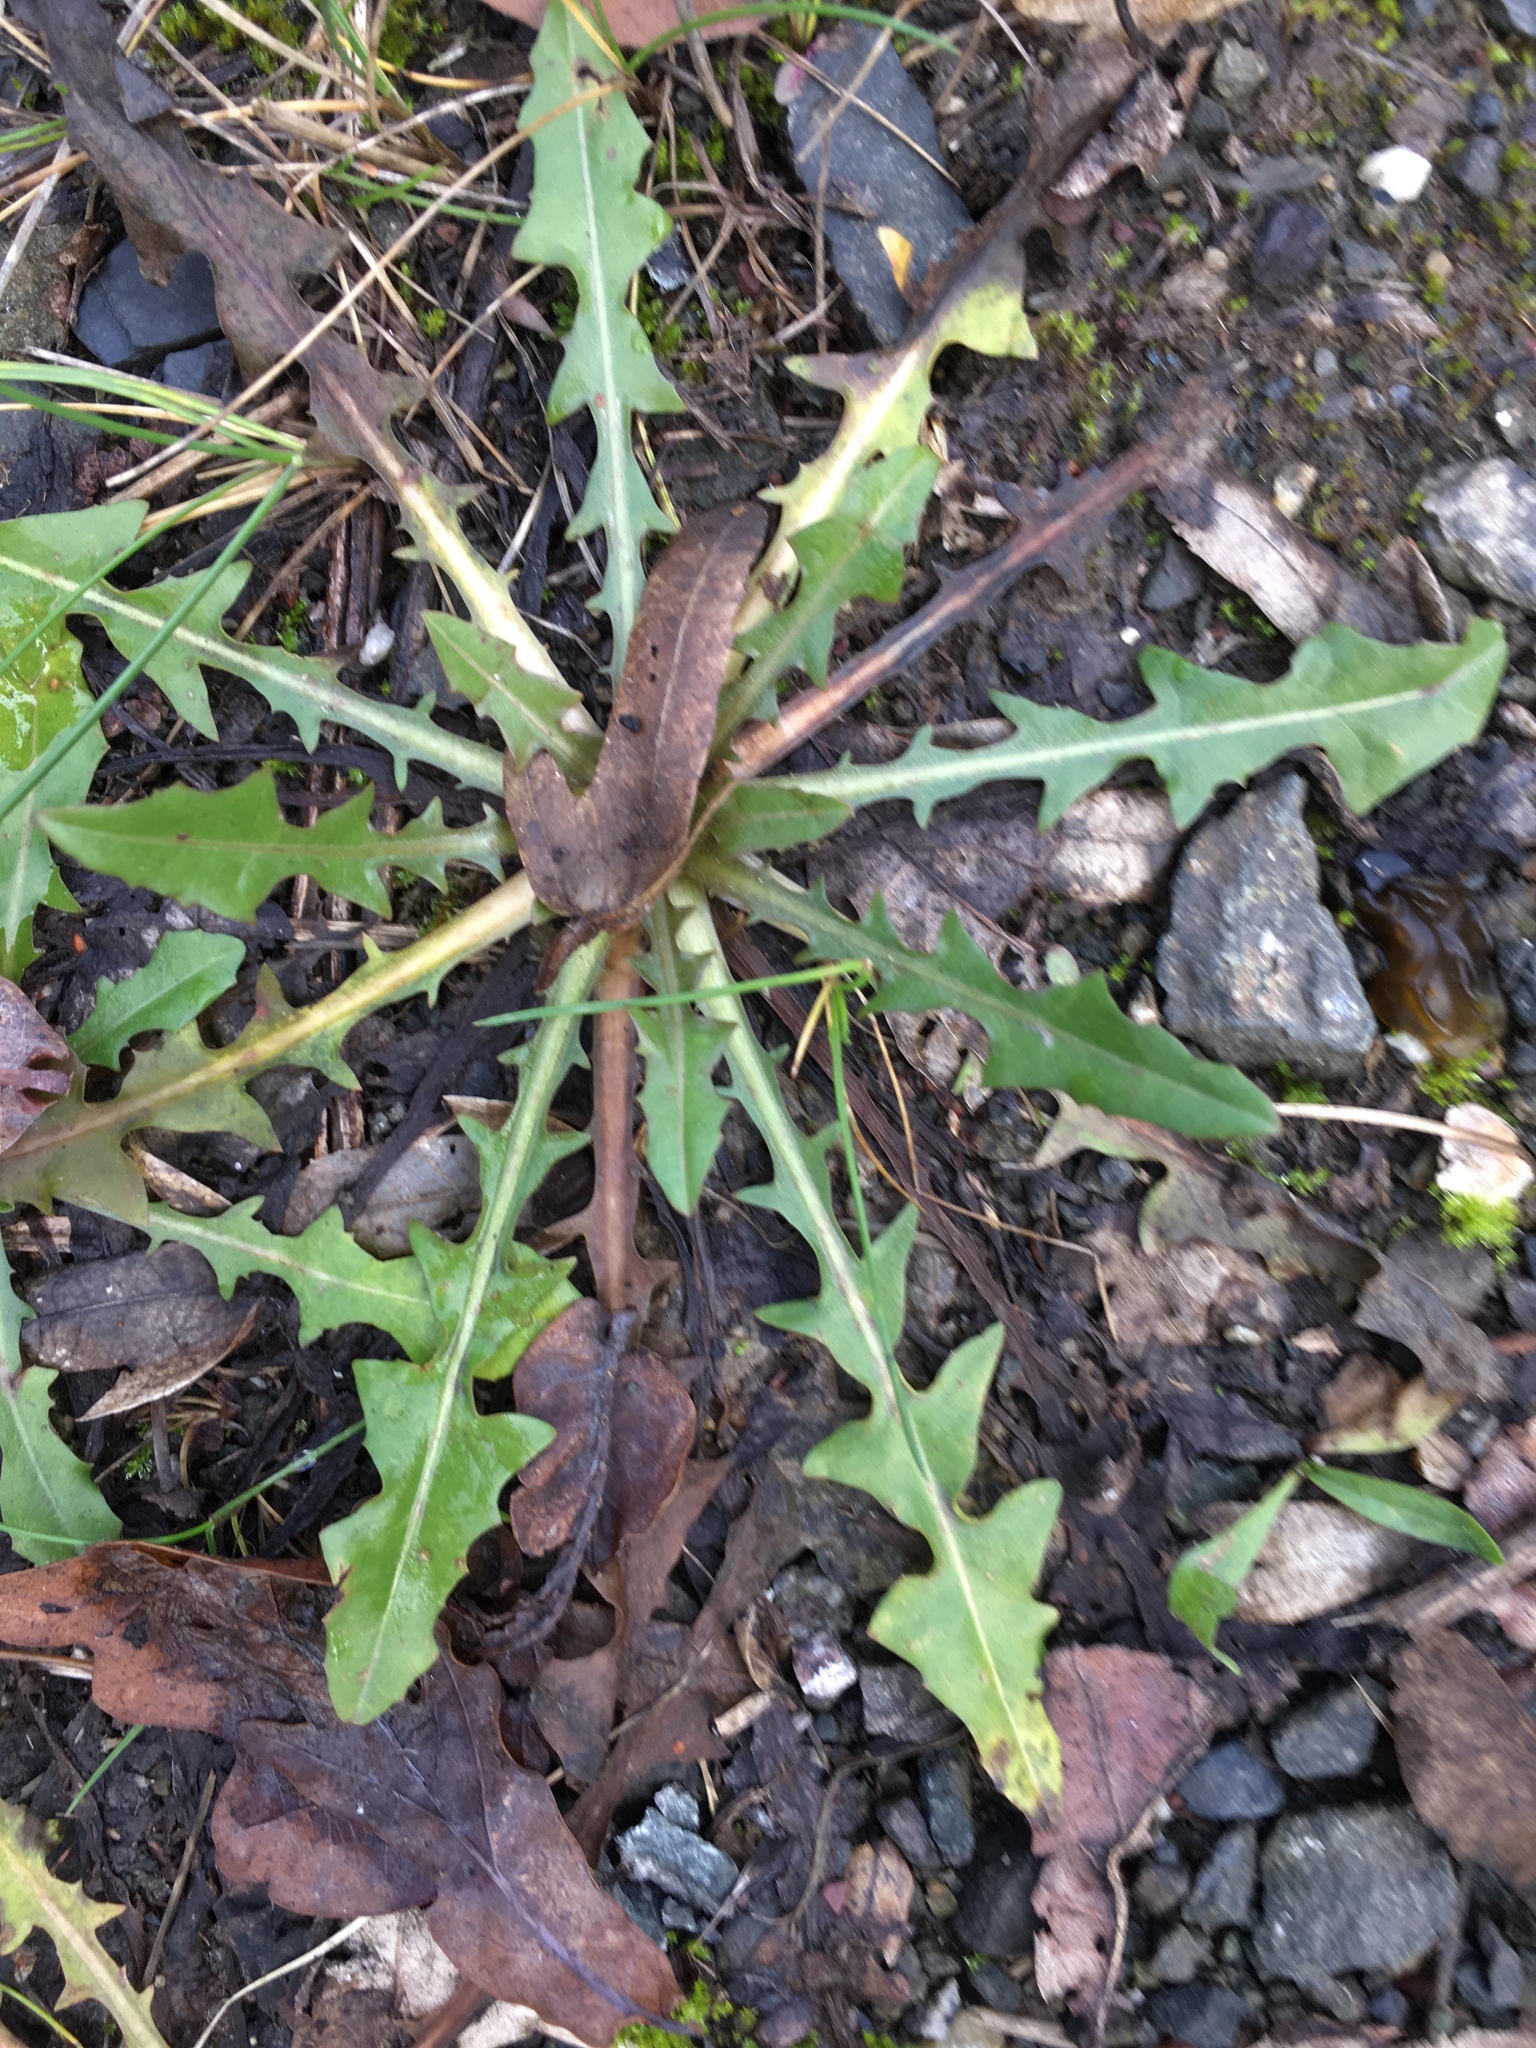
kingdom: Plantae
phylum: Tracheophyta
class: Magnoliopsida
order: Asterales
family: Asteraceae
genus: Taraxacum
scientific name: Taraxacum officinale
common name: Common dandelion
